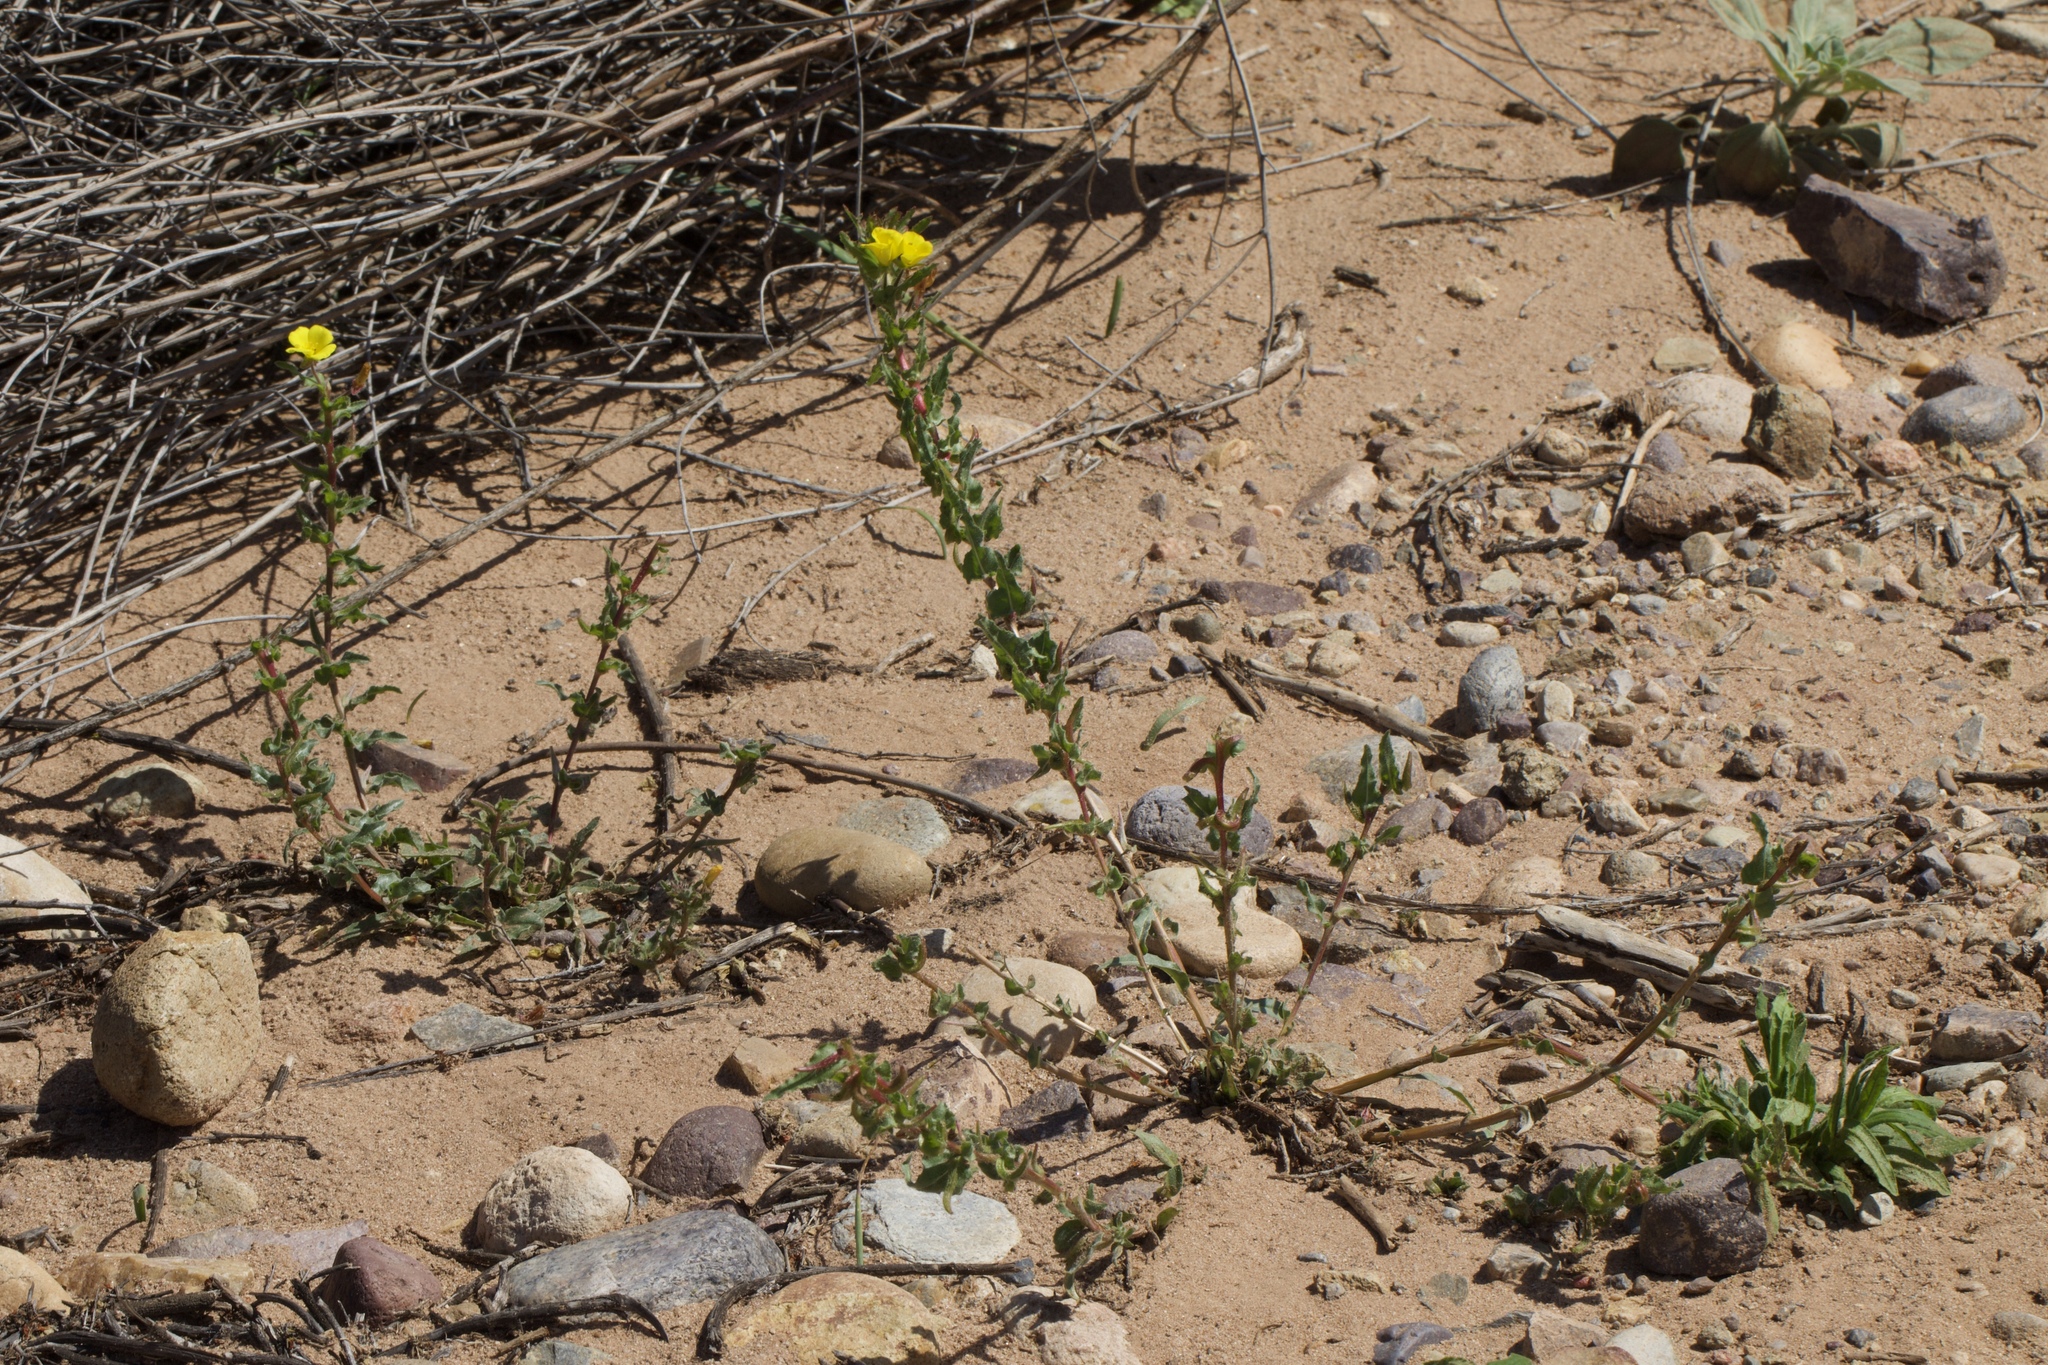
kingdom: Plantae
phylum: Tracheophyta
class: Magnoliopsida
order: Myrtales
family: Onagraceae
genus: Camissoniopsis
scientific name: Camissoniopsis bistorta
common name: Southern suncup
